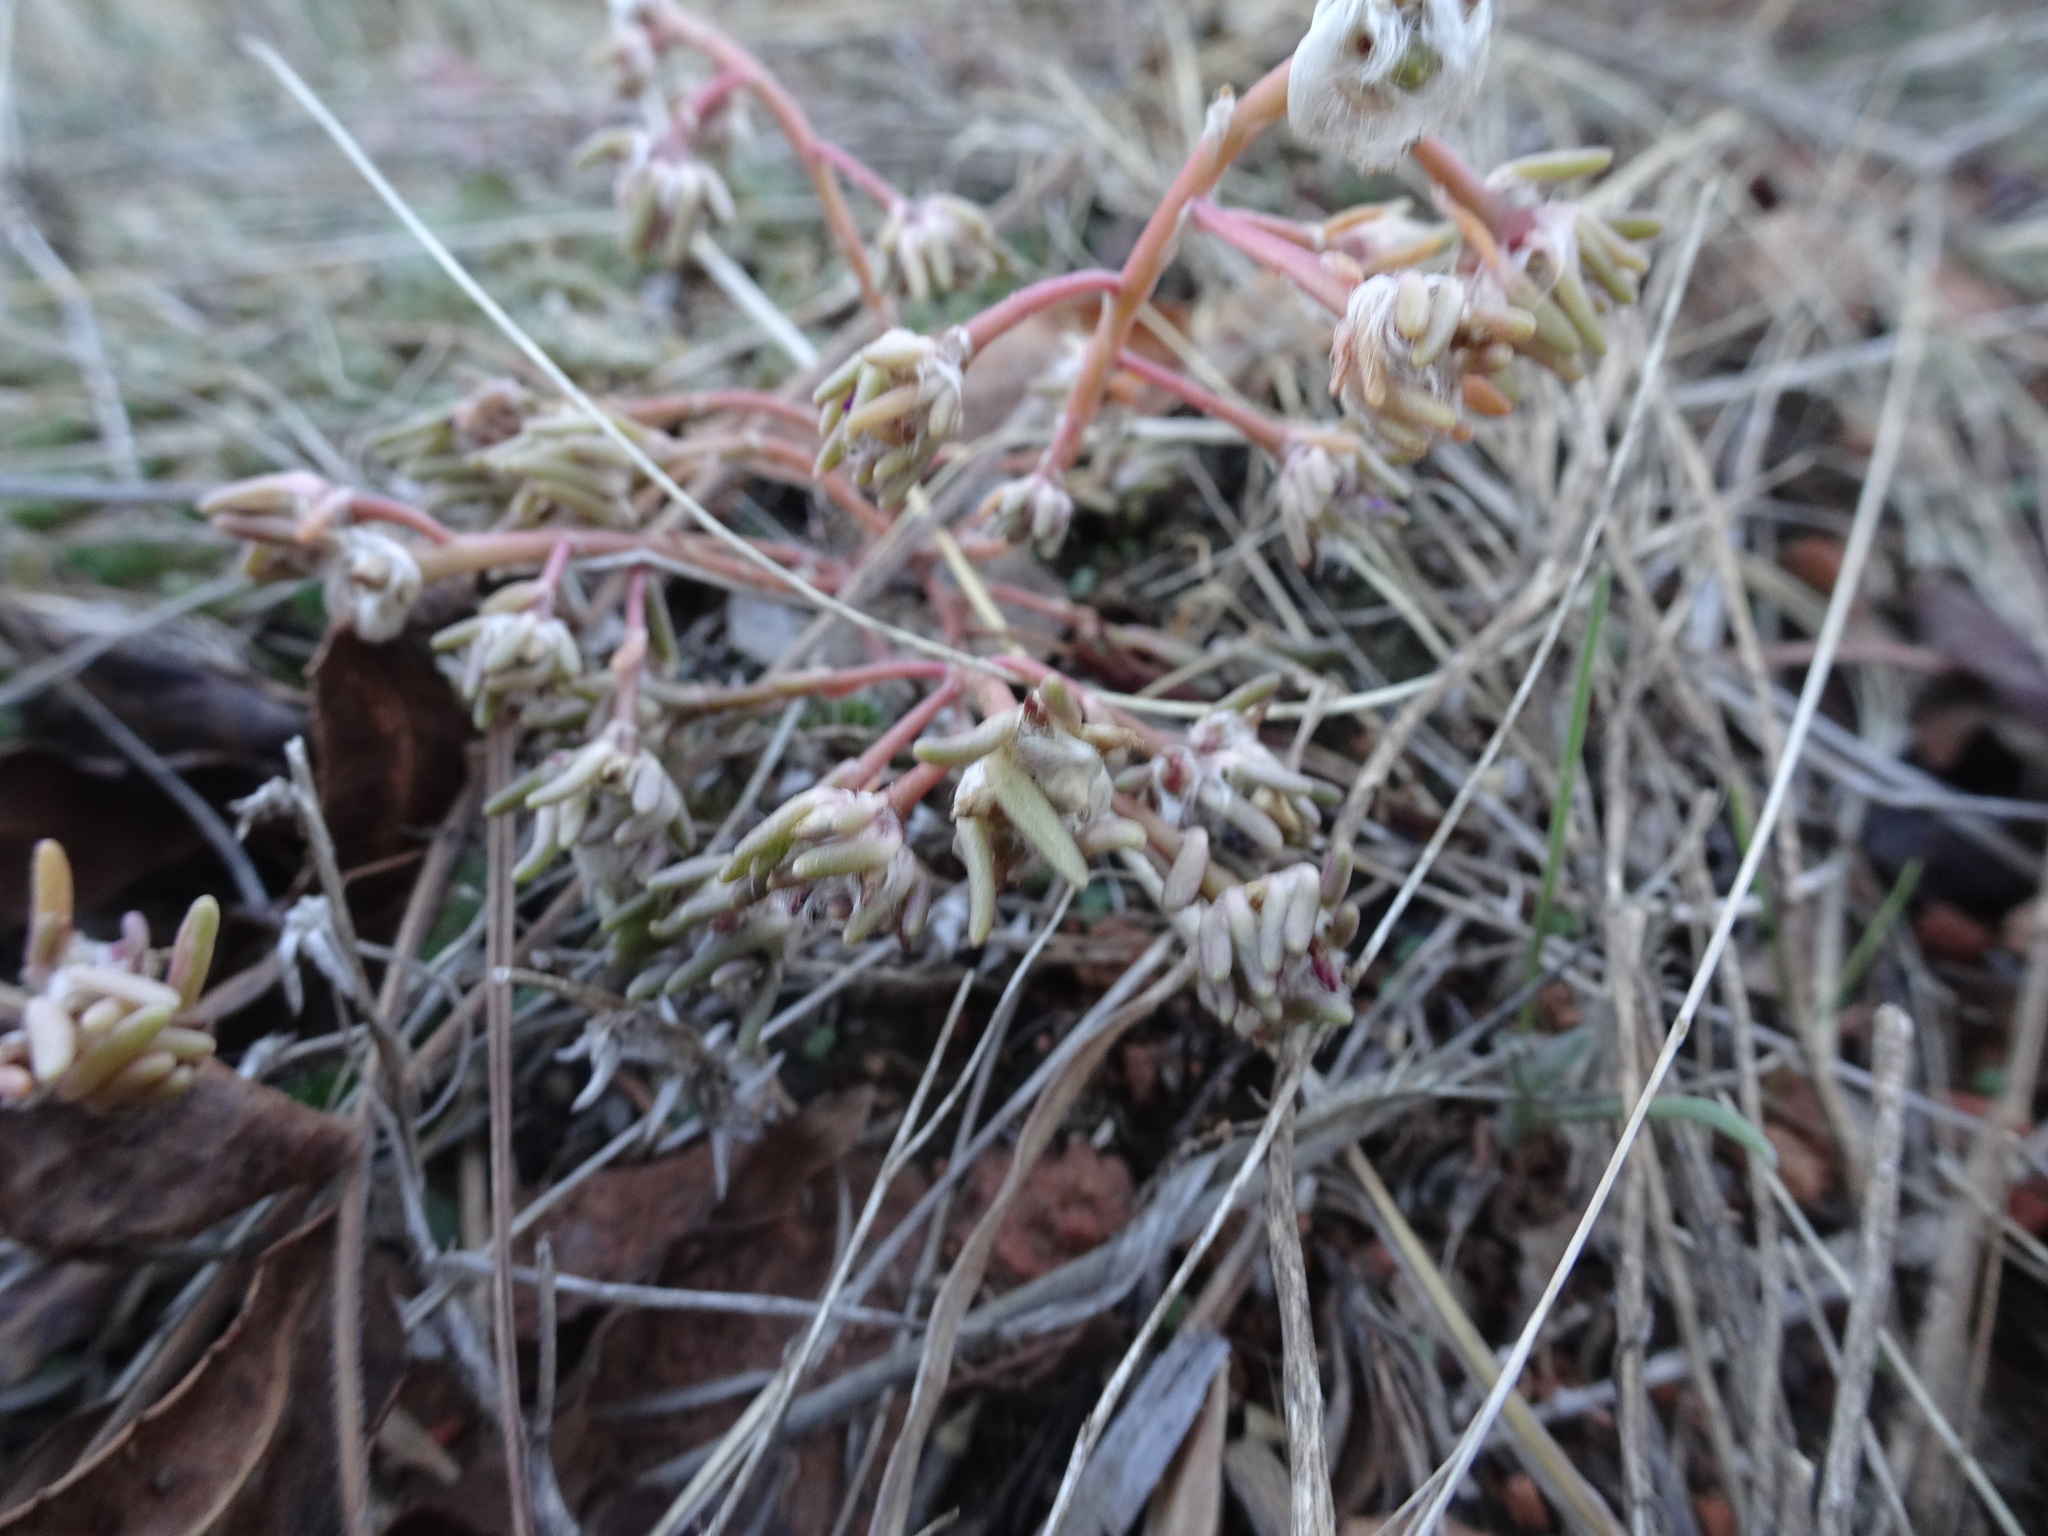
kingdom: Plantae
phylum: Tracheophyta
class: Magnoliopsida
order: Caryophyllales
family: Portulacaceae
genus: Portulaca
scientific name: Portulaca pilosa
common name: Kiss me quick
